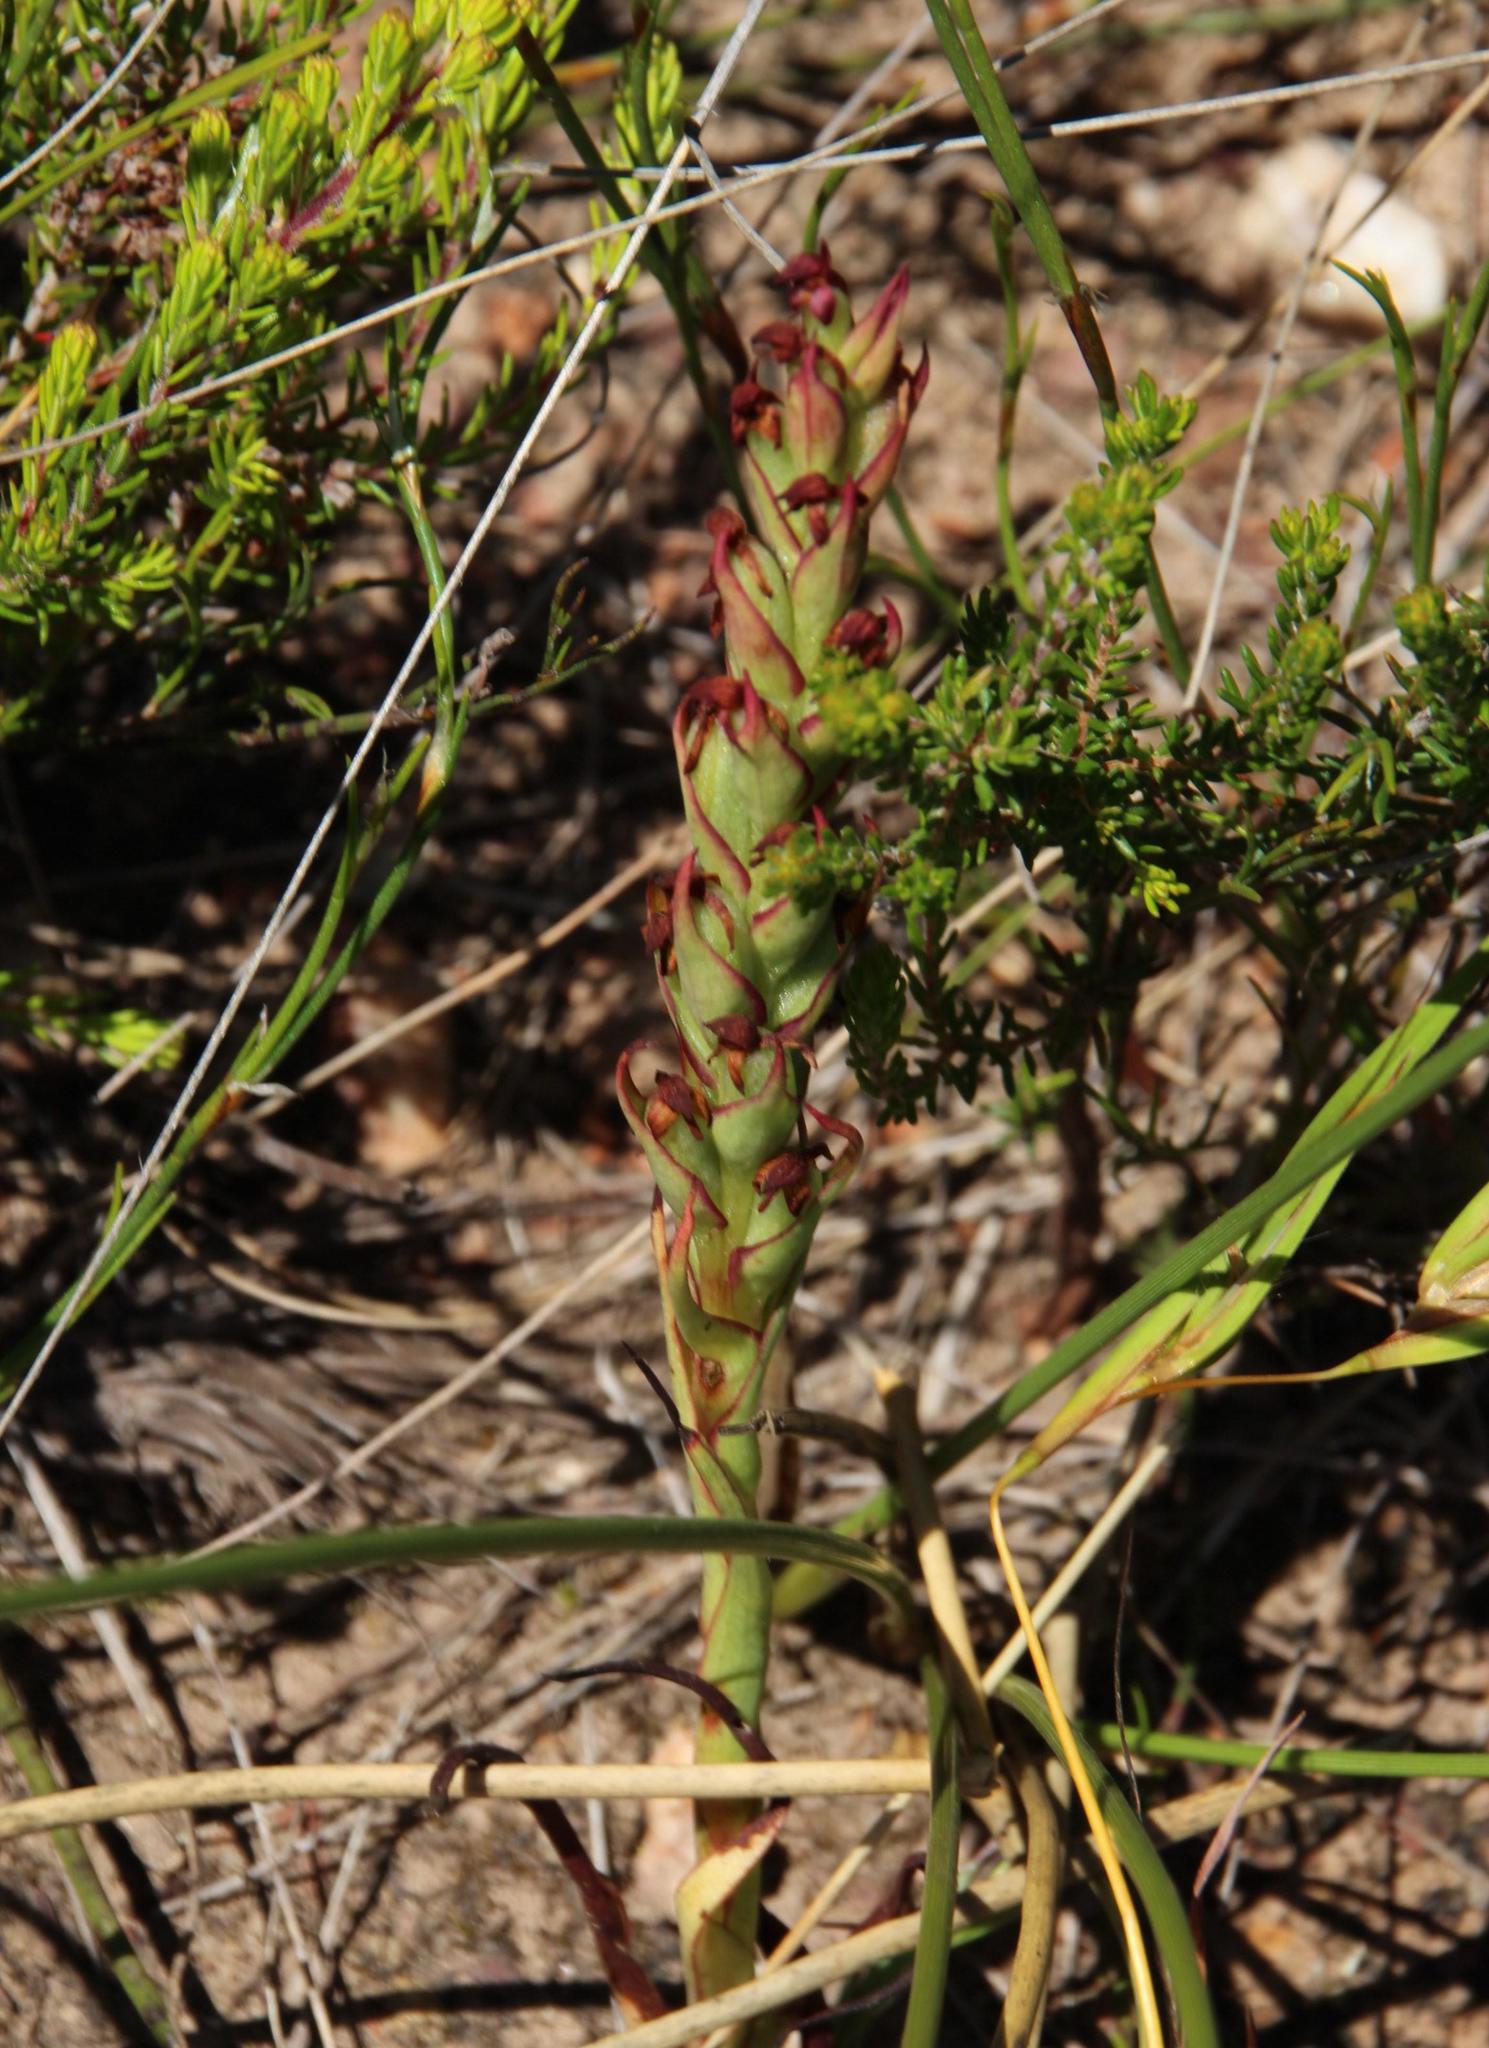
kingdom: Plantae
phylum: Tracheophyta
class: Liliopsida
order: Asparagales
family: Orchidaceae
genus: Disa
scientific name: Disa bracteata
